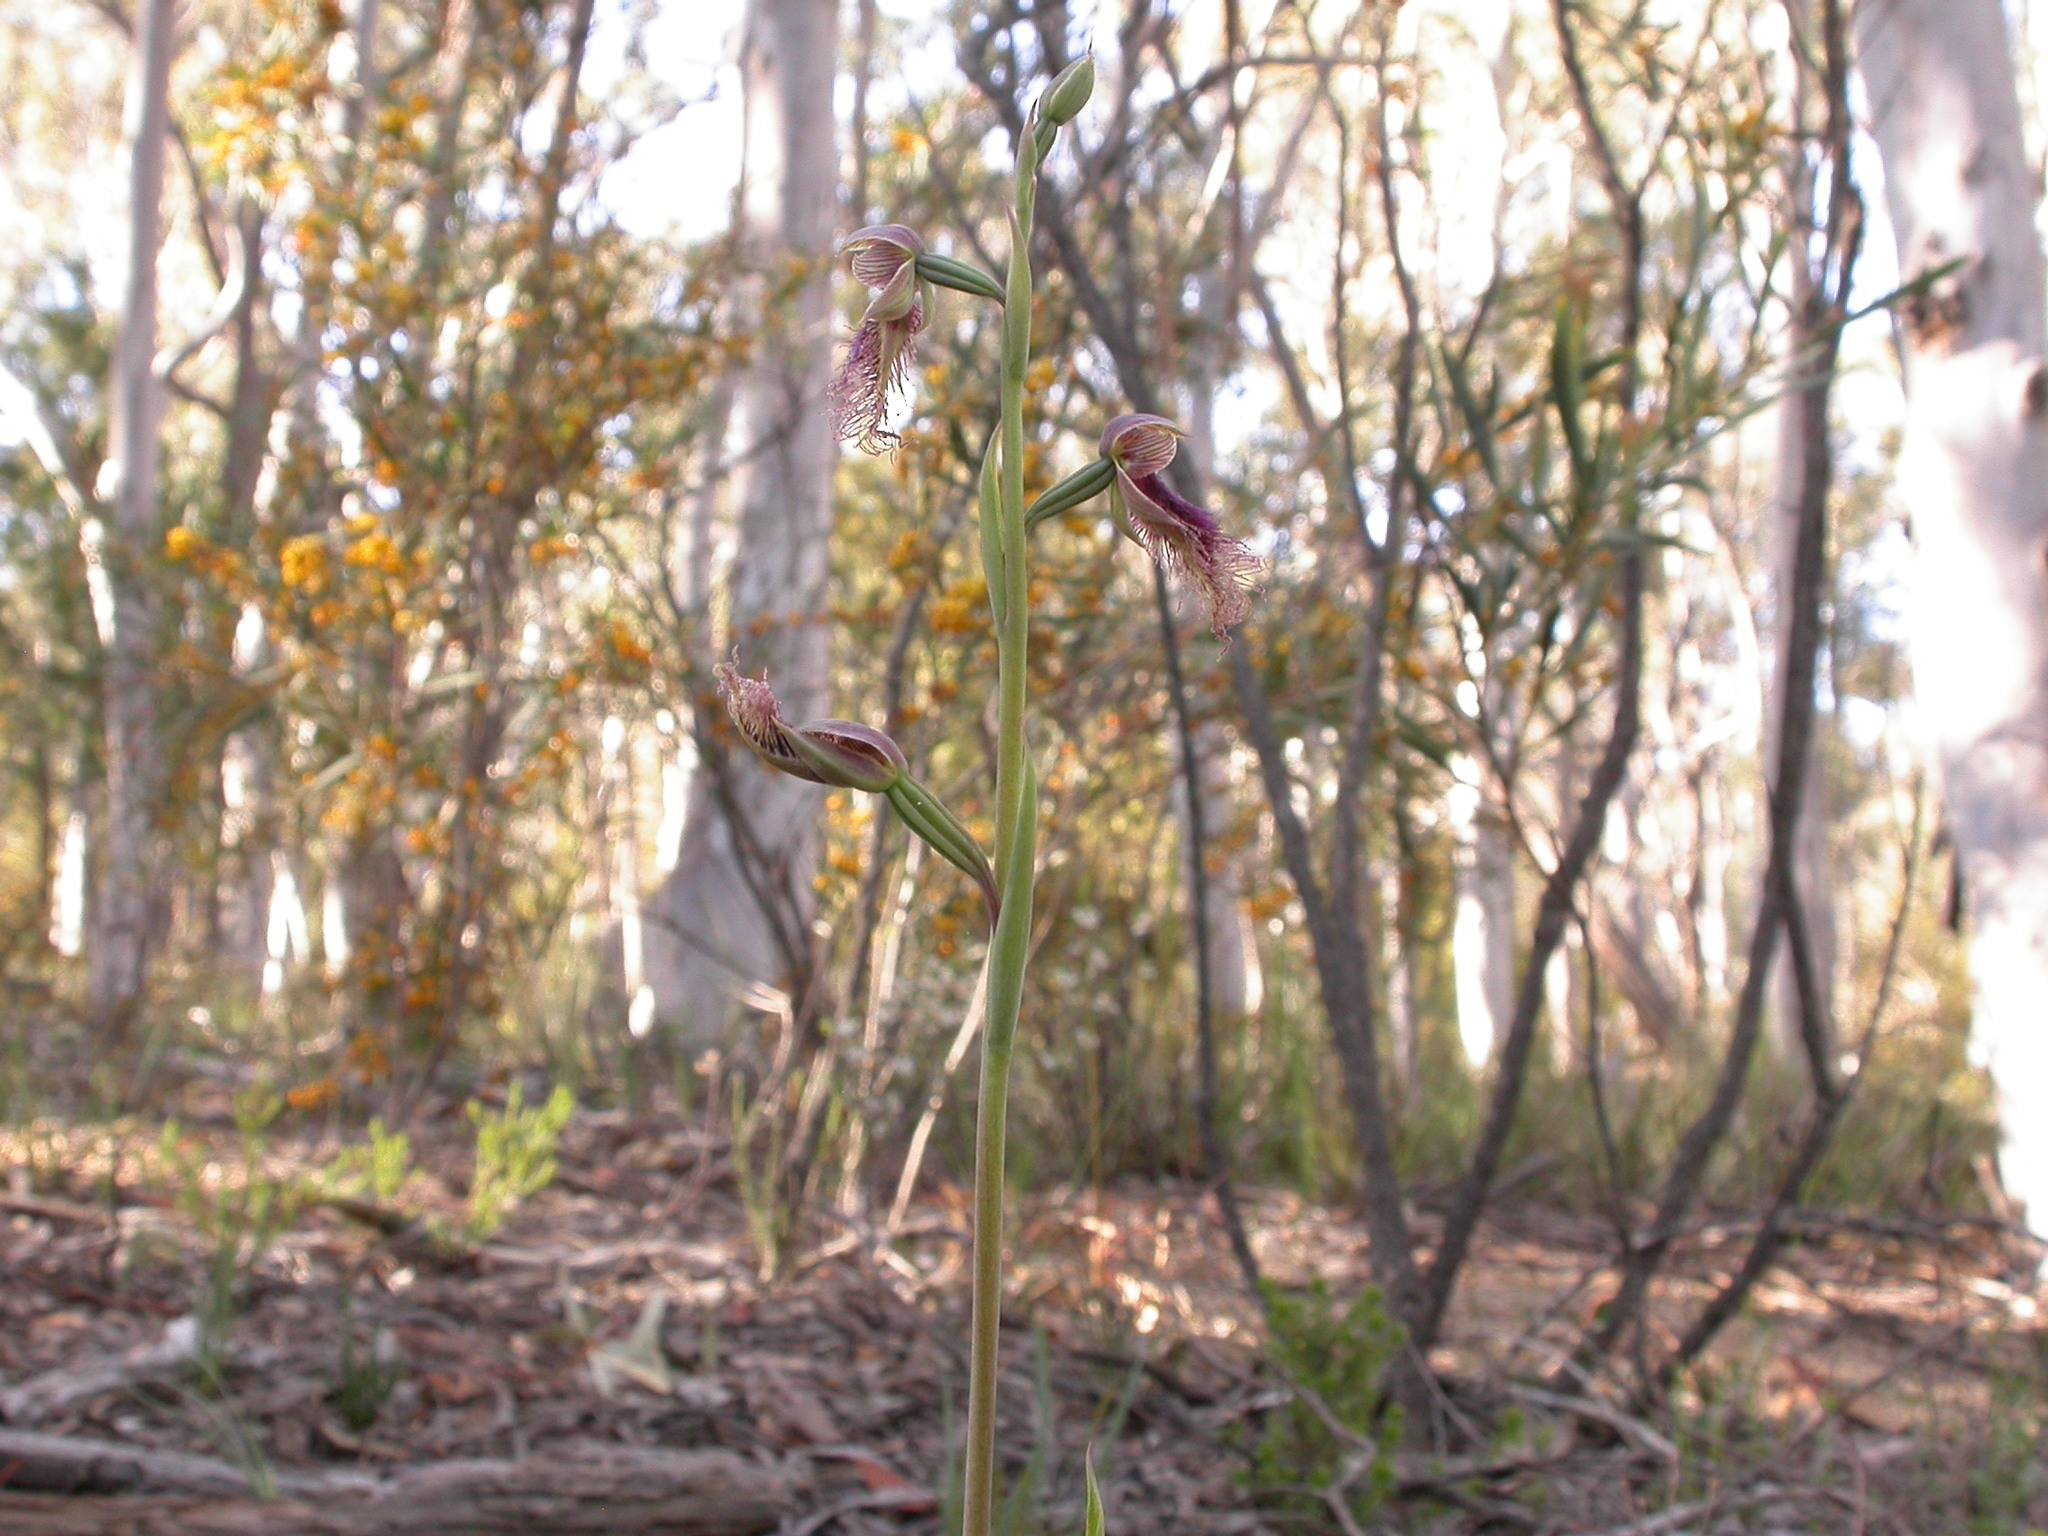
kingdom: Plantae
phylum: Tracheophyta
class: Liliopsida
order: Asparagales
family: Orchidaceae
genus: Calochilus
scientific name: Calochilus robertsonii
